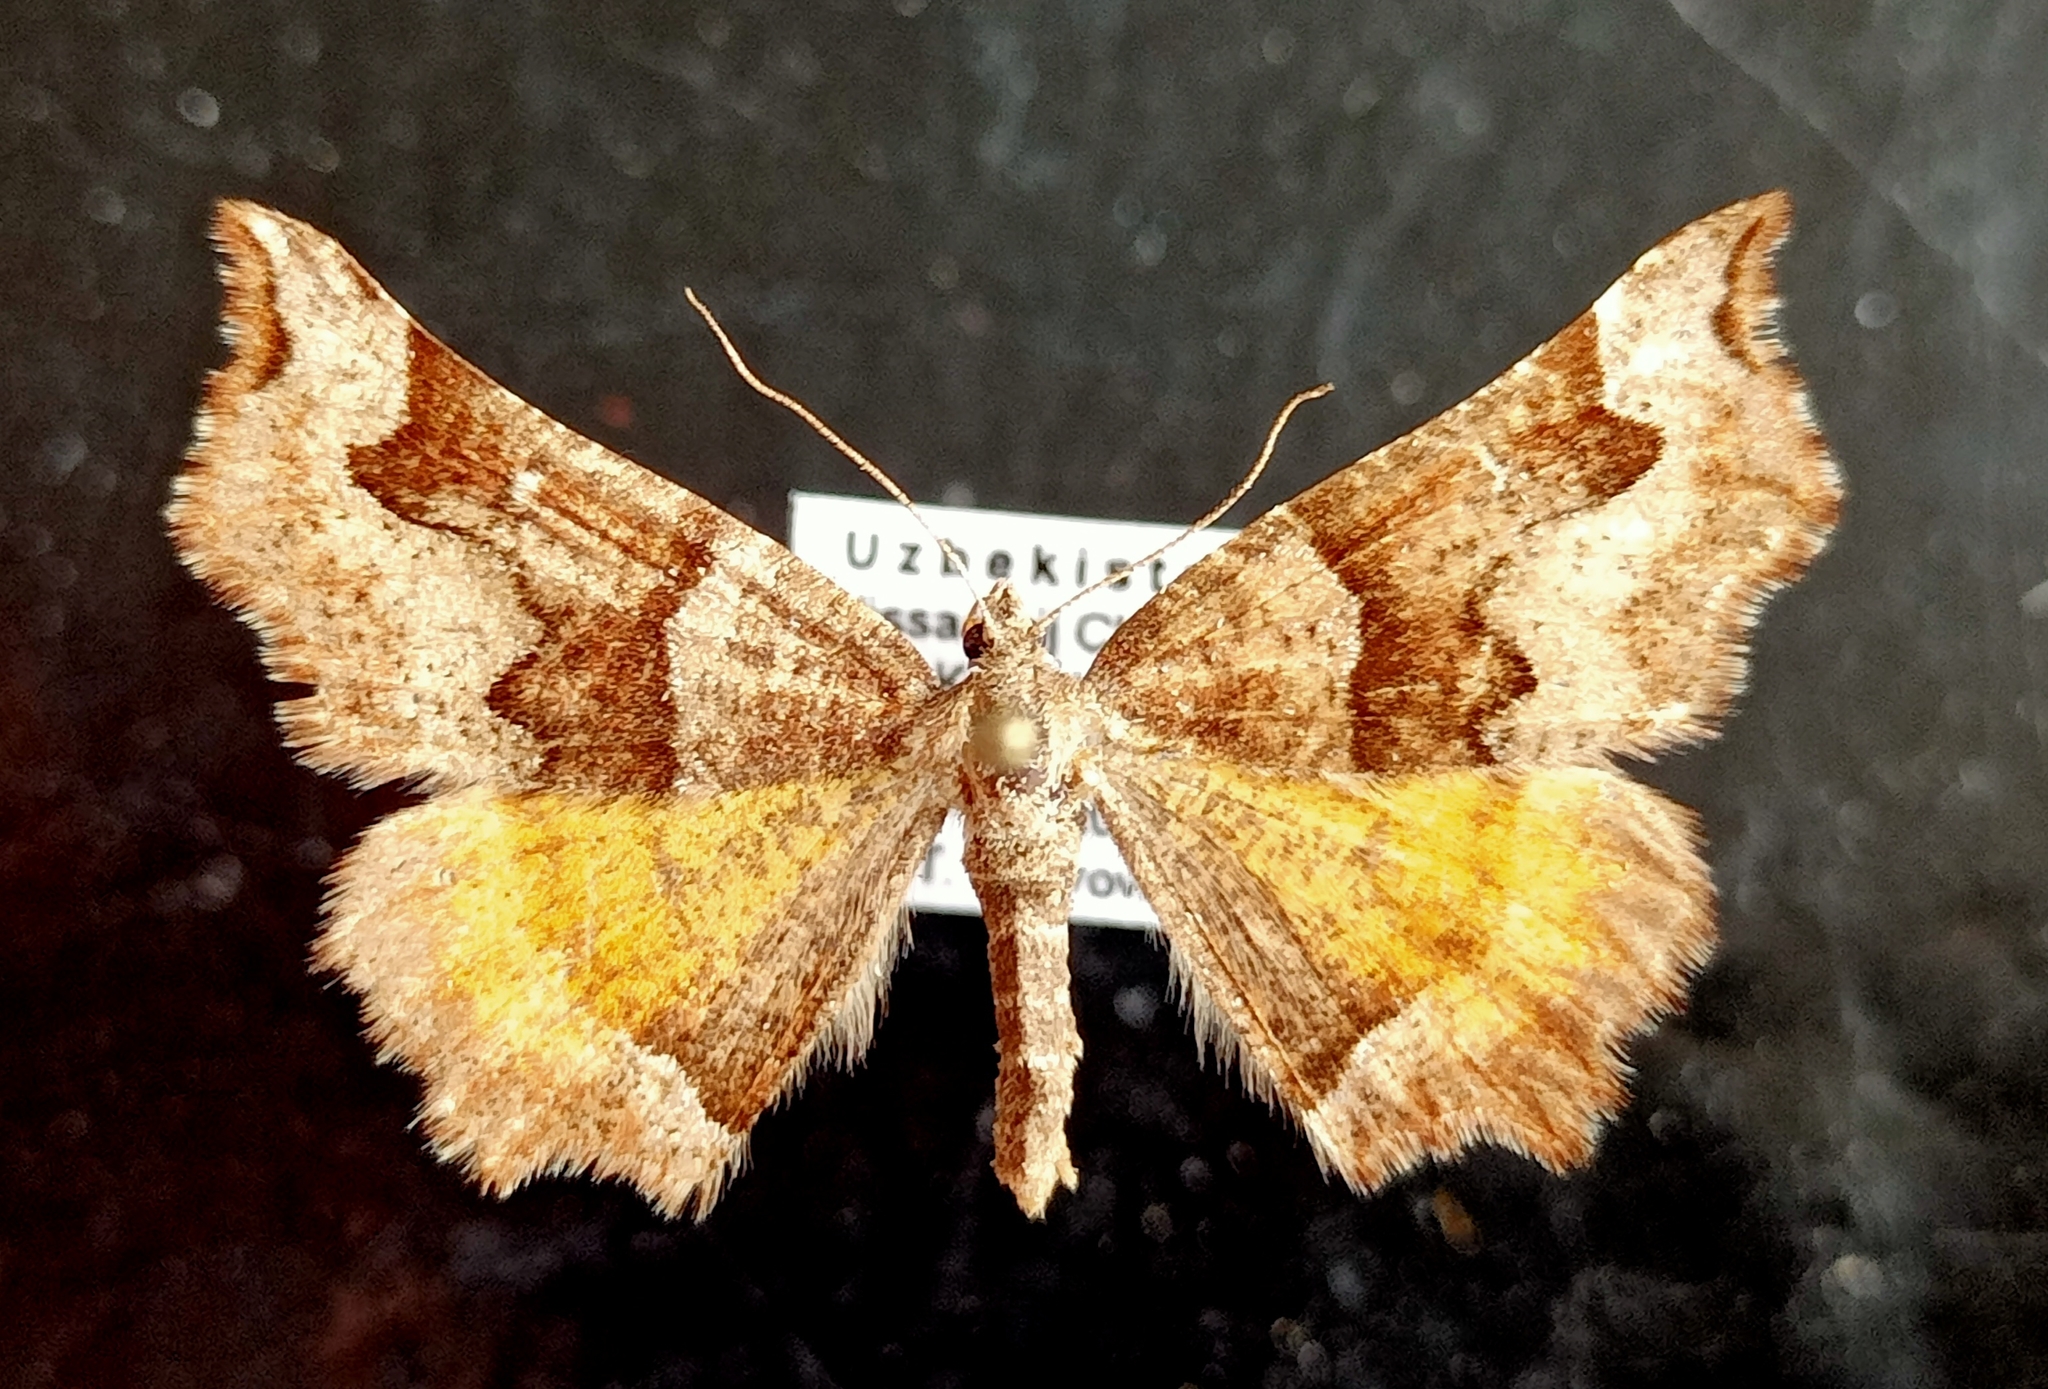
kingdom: Animalia
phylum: Arthropoda
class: Insecta
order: Lepidoptera
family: Geometridae
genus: Artemidora
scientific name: Artemidora maracandaria
